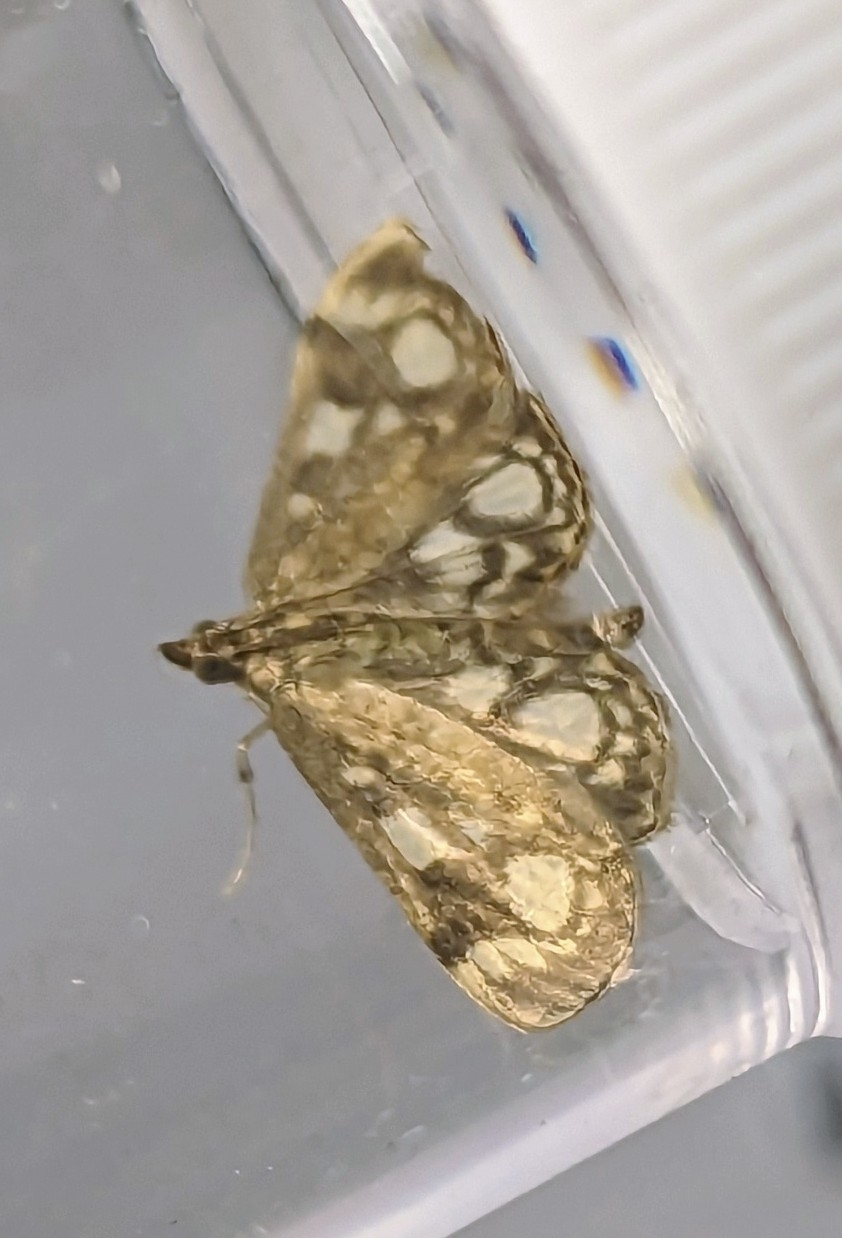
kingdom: Animalia
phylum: Arthropoda
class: Insecta
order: Lepidoptera
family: Crambidae
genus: Anania
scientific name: Anania coronata
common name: Elder pearl
